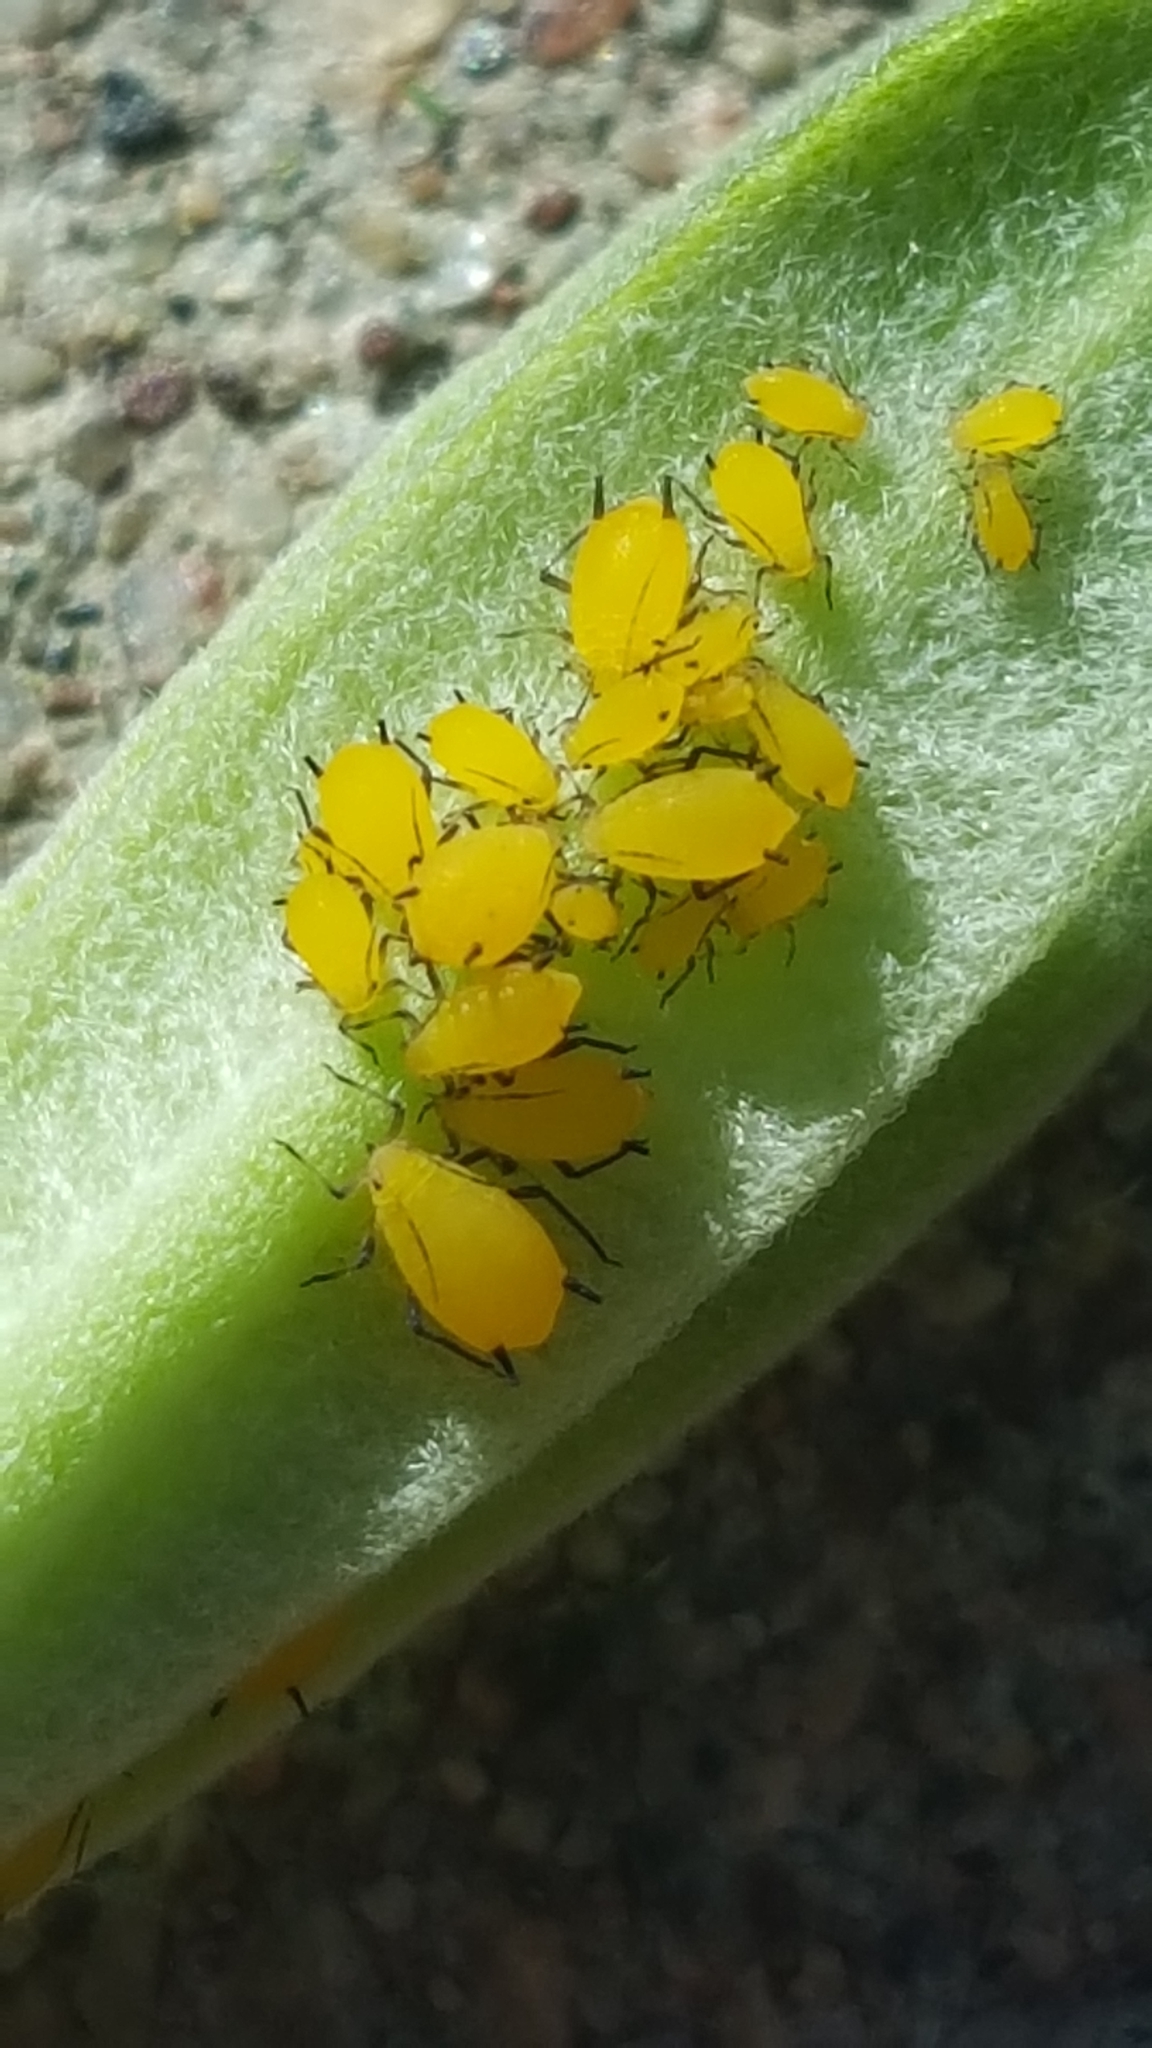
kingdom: Animalia
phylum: Arthropoda
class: Insecta
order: Hemiptera
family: Aphididae
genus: Aphis
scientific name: Aphis nerii
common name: Oleander aphid
